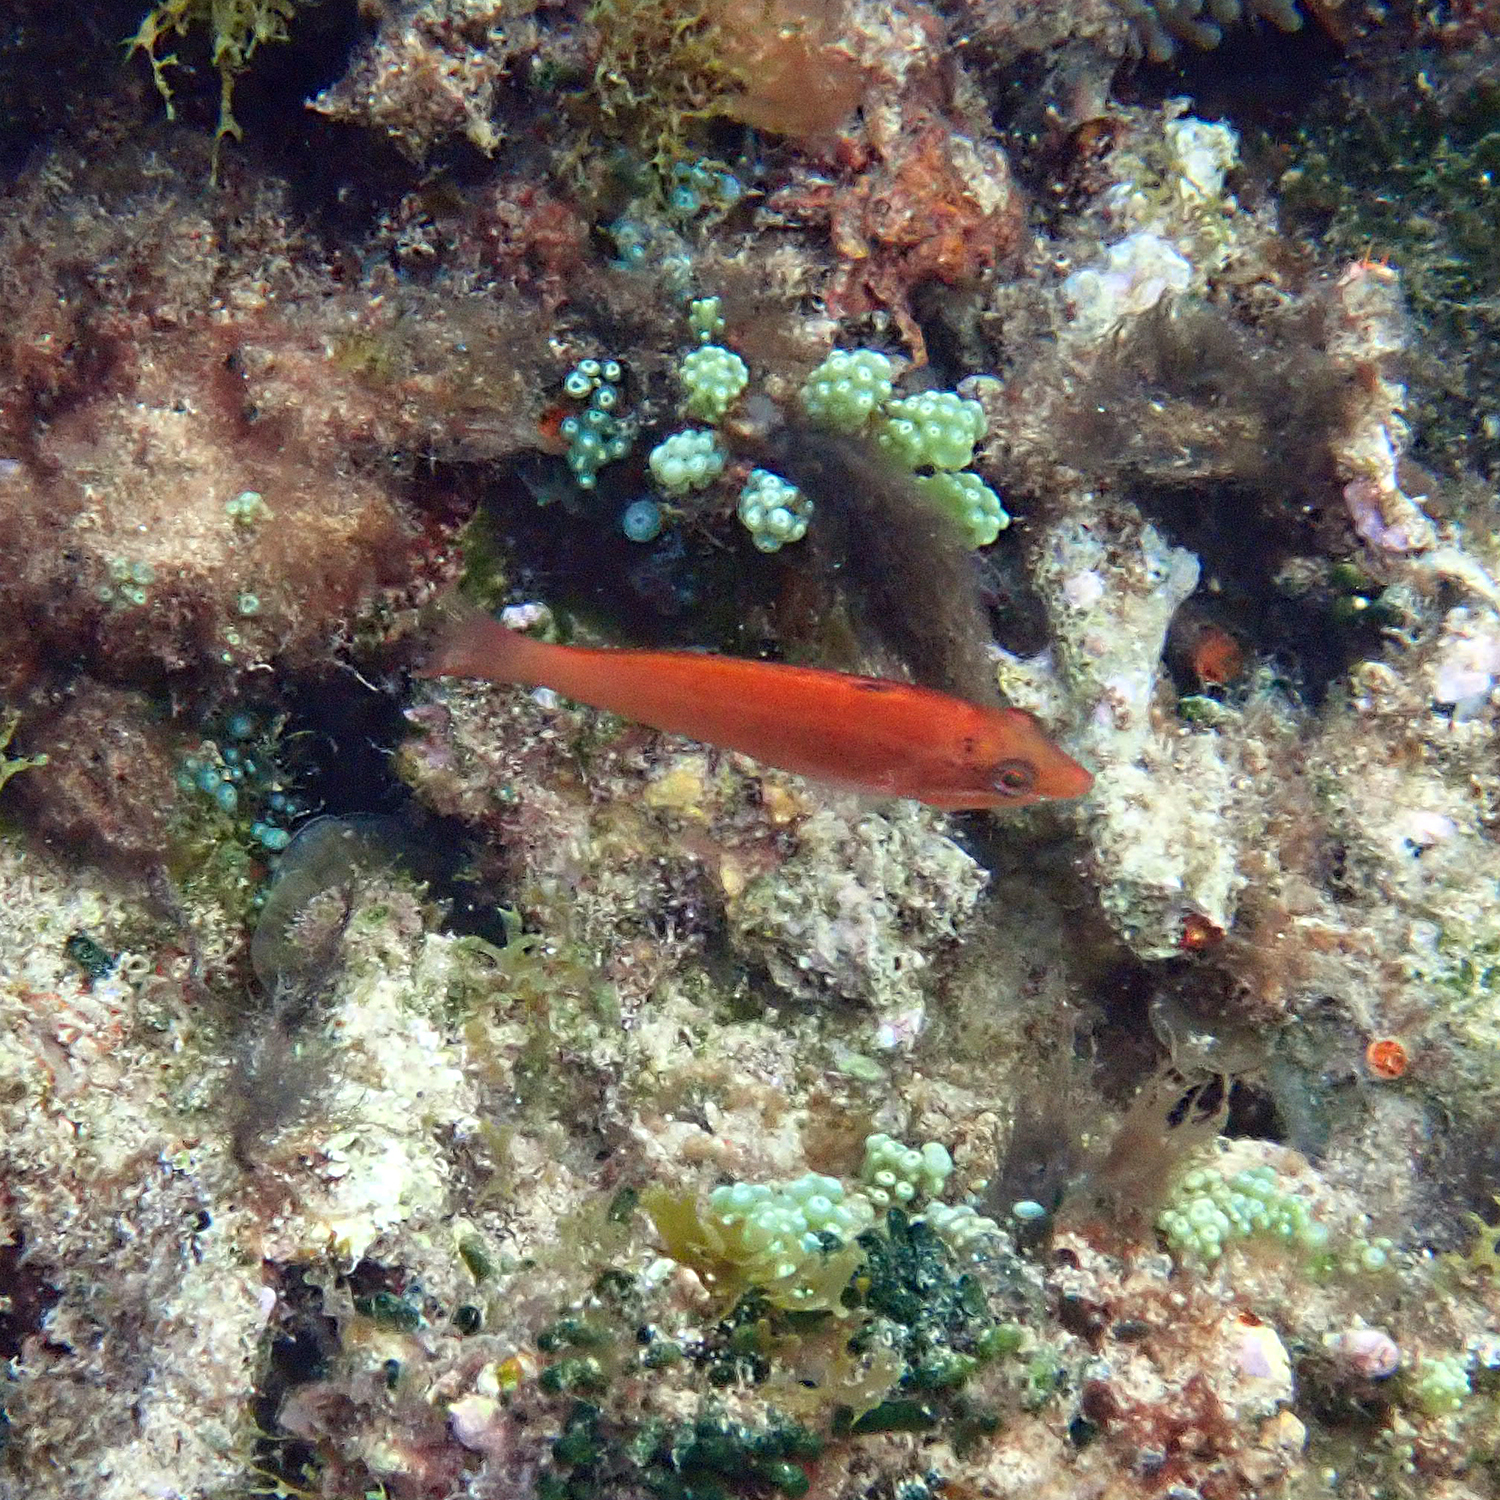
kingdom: Animalia
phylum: Chordata
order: Perciformes
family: Labridae
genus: Pseudolabrus
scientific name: Pseudolabrus luculentus
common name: Luculentus wrasse
